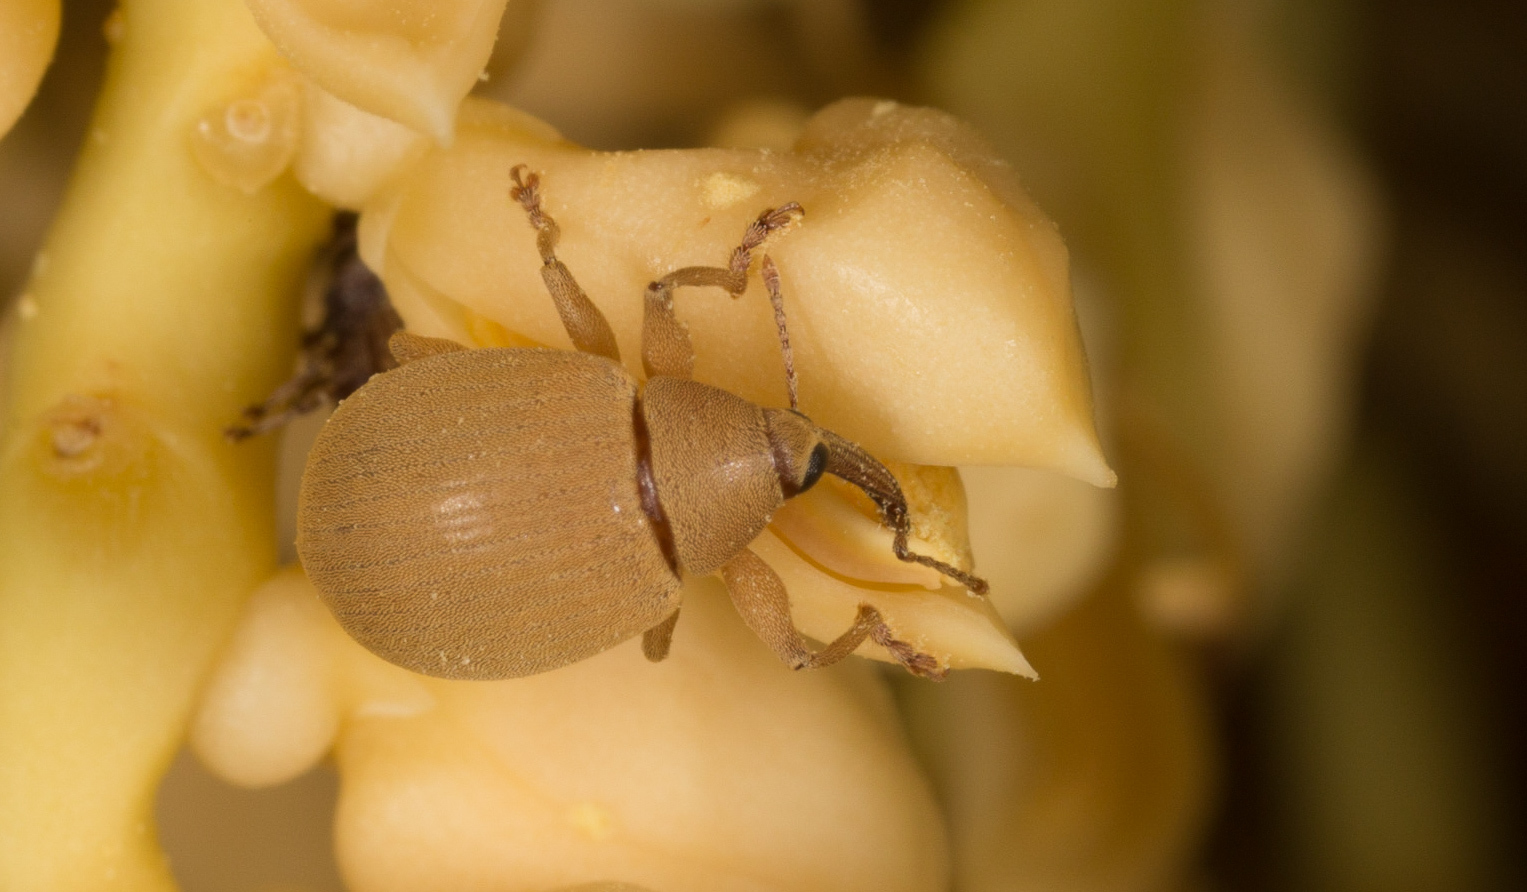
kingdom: Animalia
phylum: Arthropoda
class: Insecta
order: Coleoptera
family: Curculionidae
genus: Anchylorhynchus
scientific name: Anchylorhynchus trapezicollis
